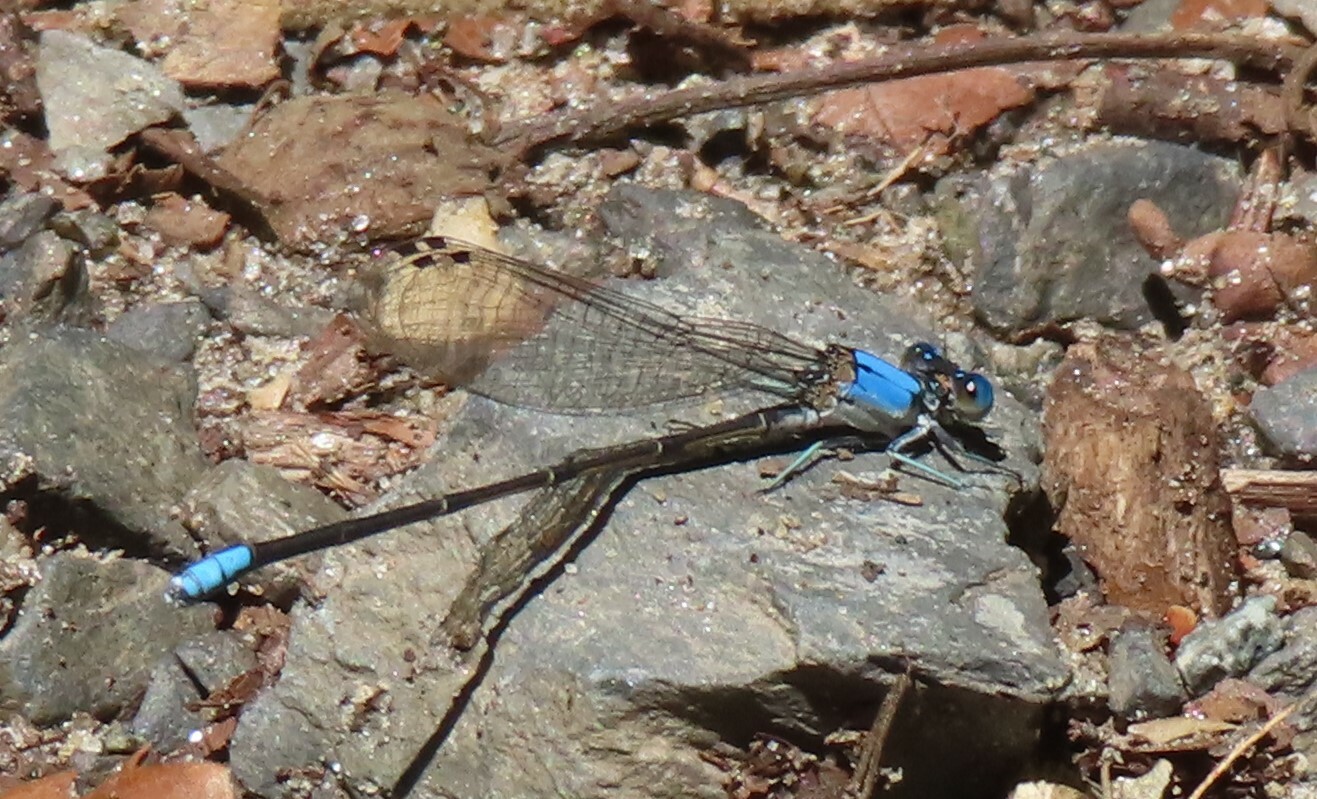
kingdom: Animalia
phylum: Arthropoda
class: Insecta
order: Odonata
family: Coenagrionidae
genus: Argia
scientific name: Argia apicalis
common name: Blue-fronted dancer
